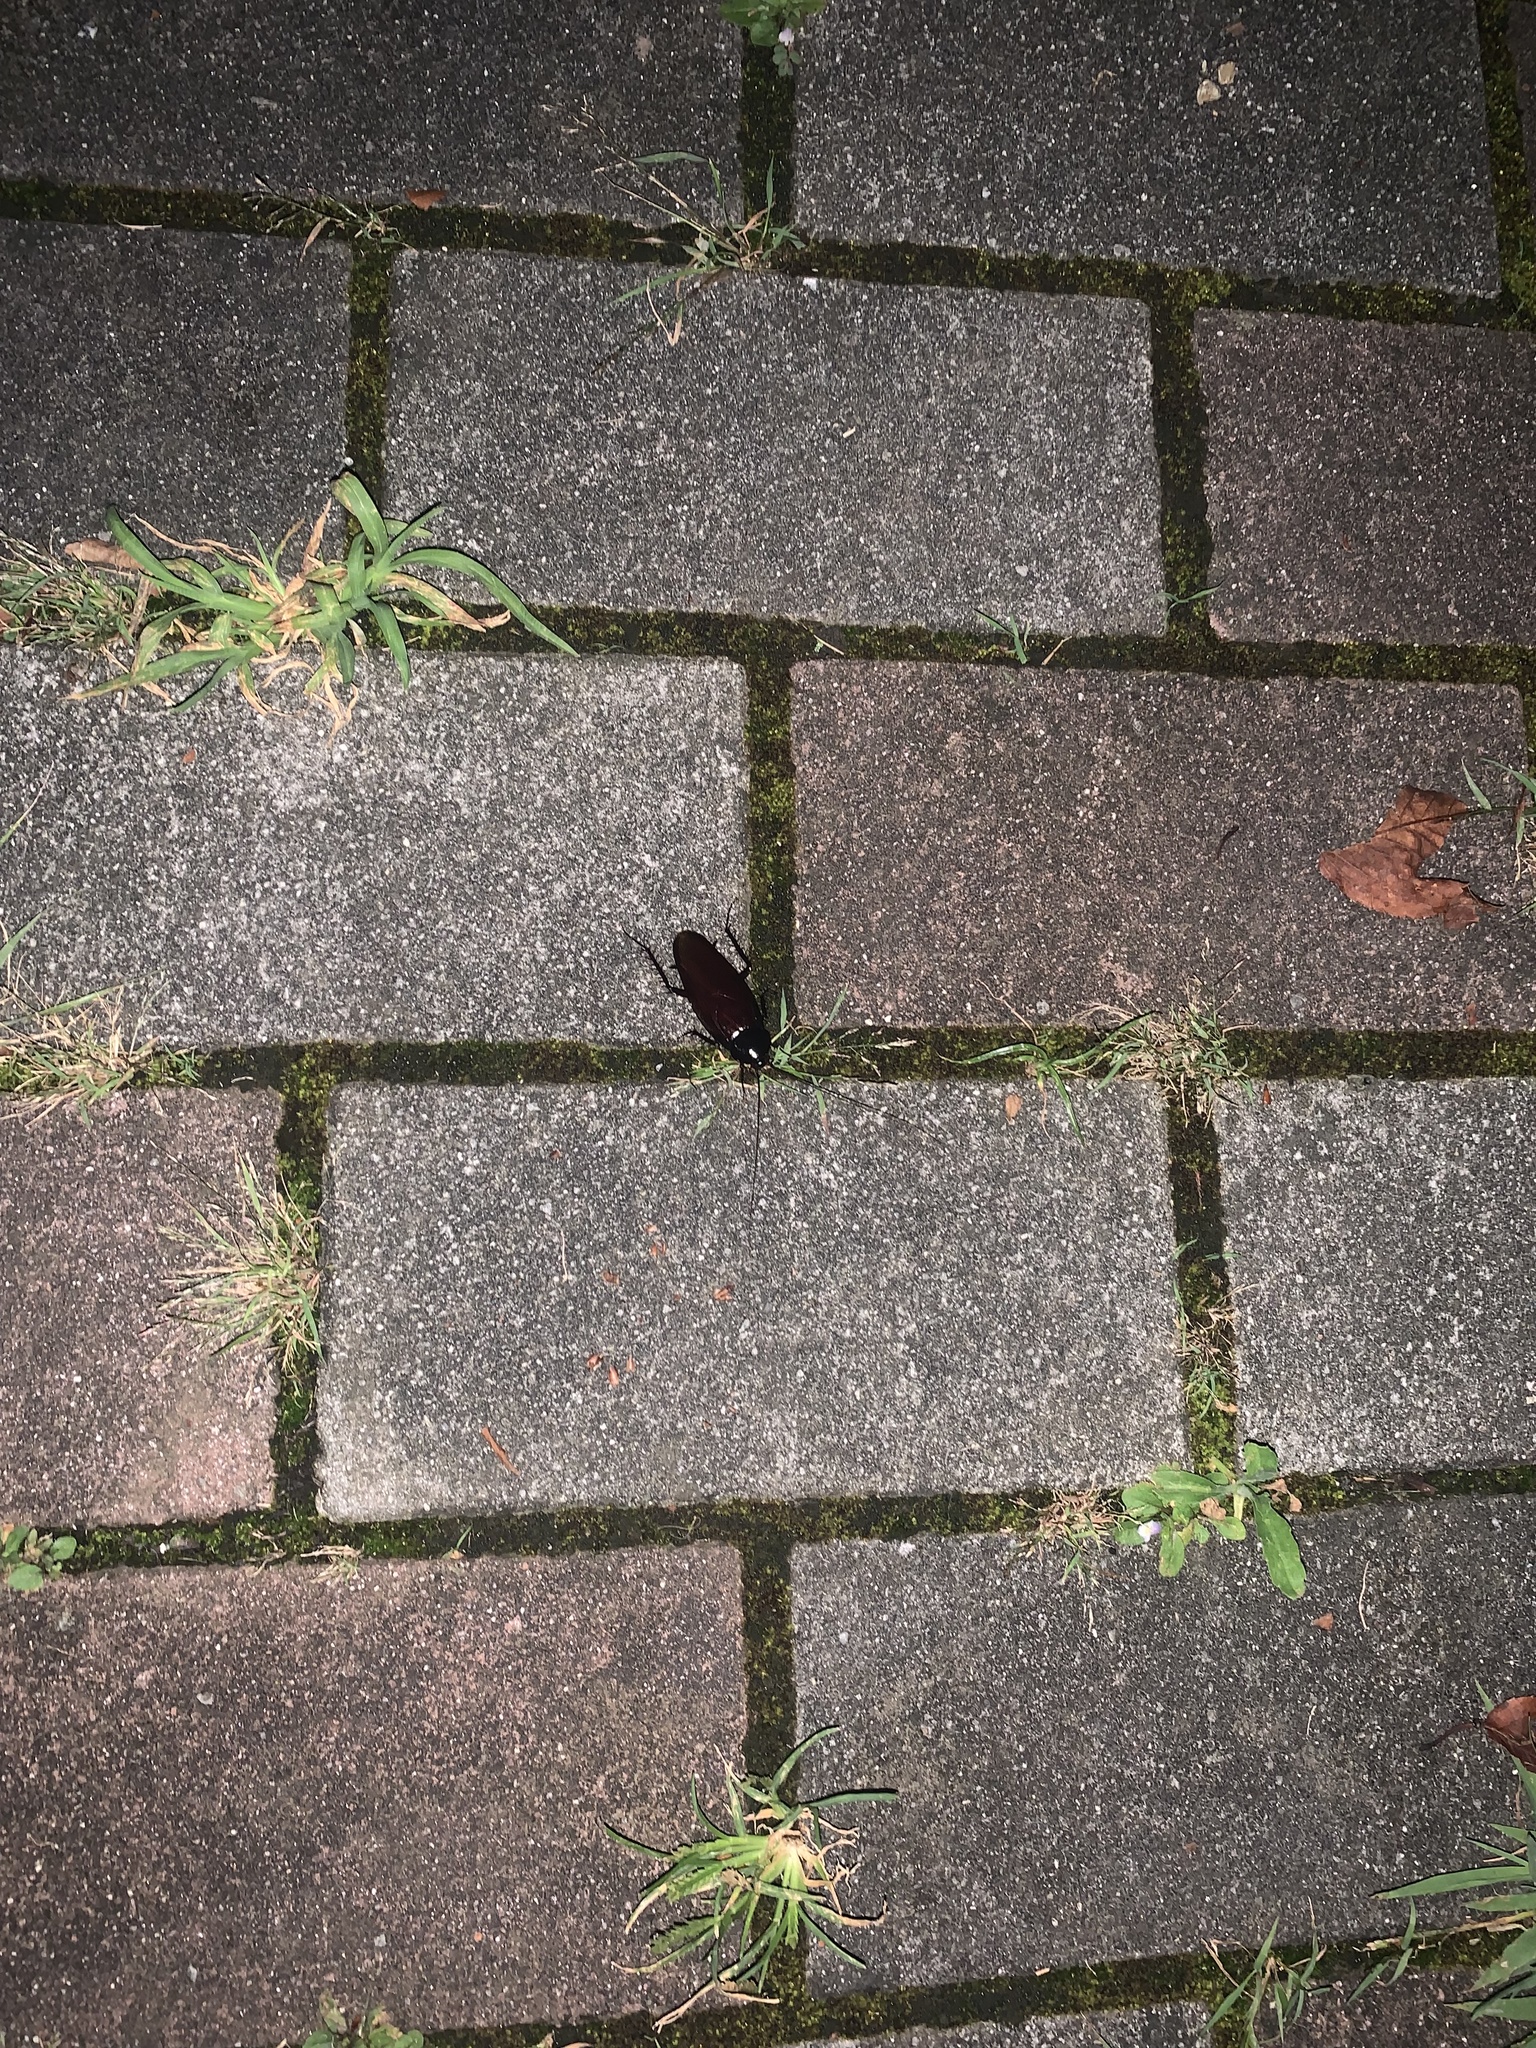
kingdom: Animalia
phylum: Arthropoda
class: Insecta
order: Blattodea
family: Blattidae
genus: Periplaneta
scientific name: Periplaneta fuliginosa
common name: Smokeybrown cockroad
